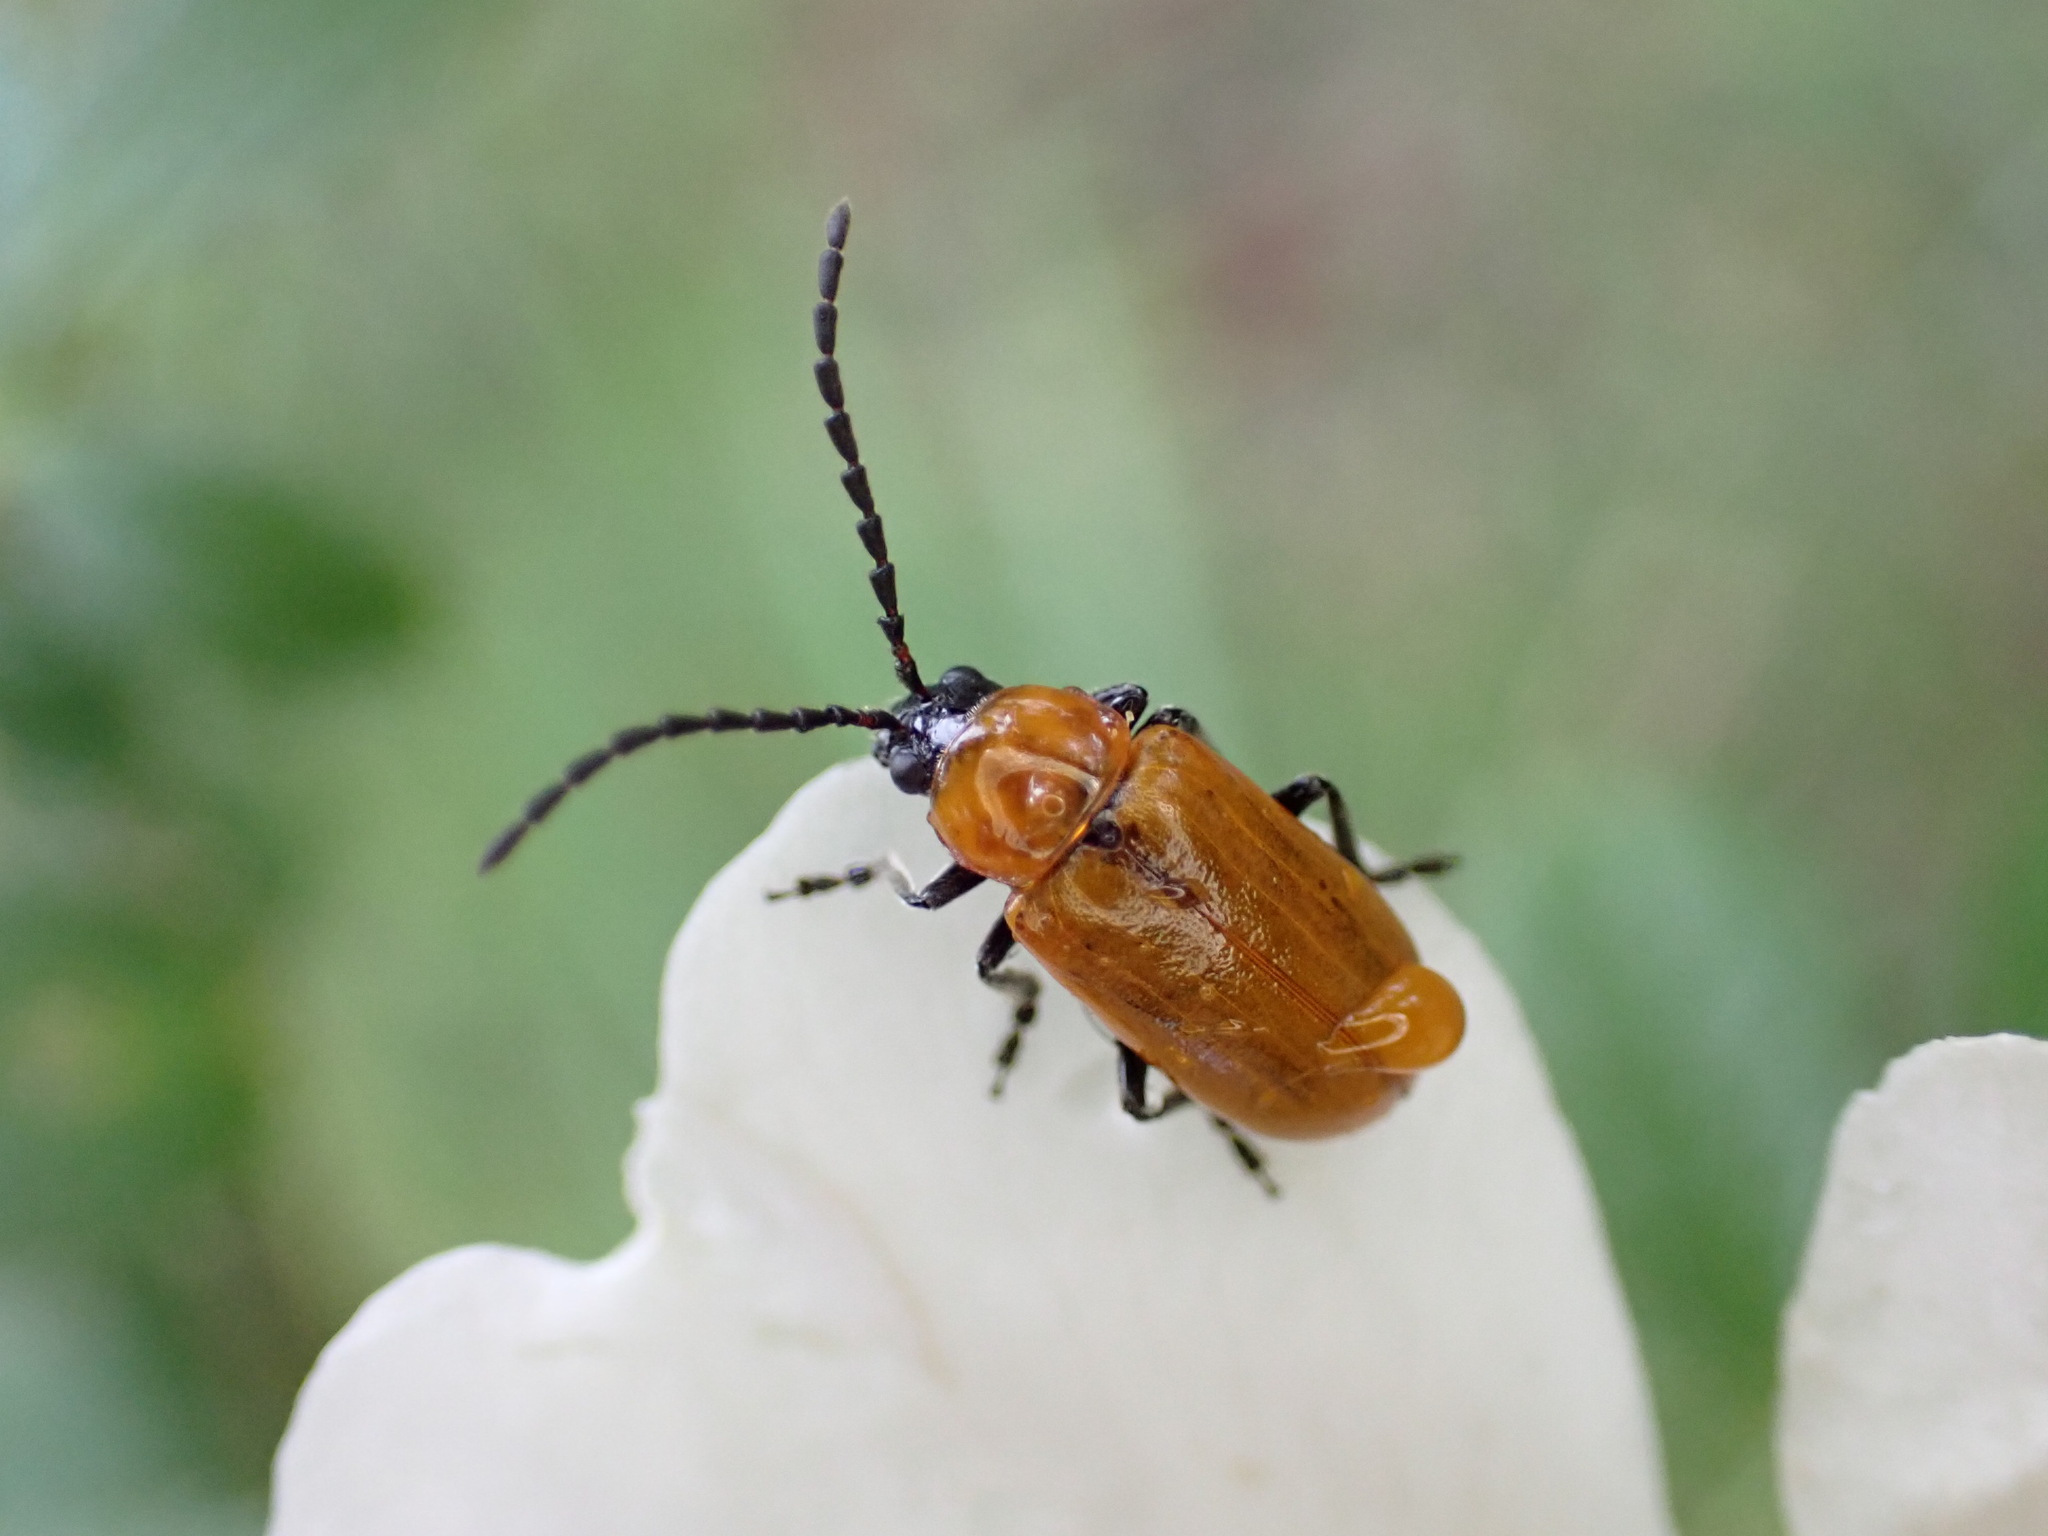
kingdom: Animalia
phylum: Arthropoda
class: Insecta
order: Coleoptera
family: Chrysomelidae
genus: Exosoma
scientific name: Exosoma lusitanicum
